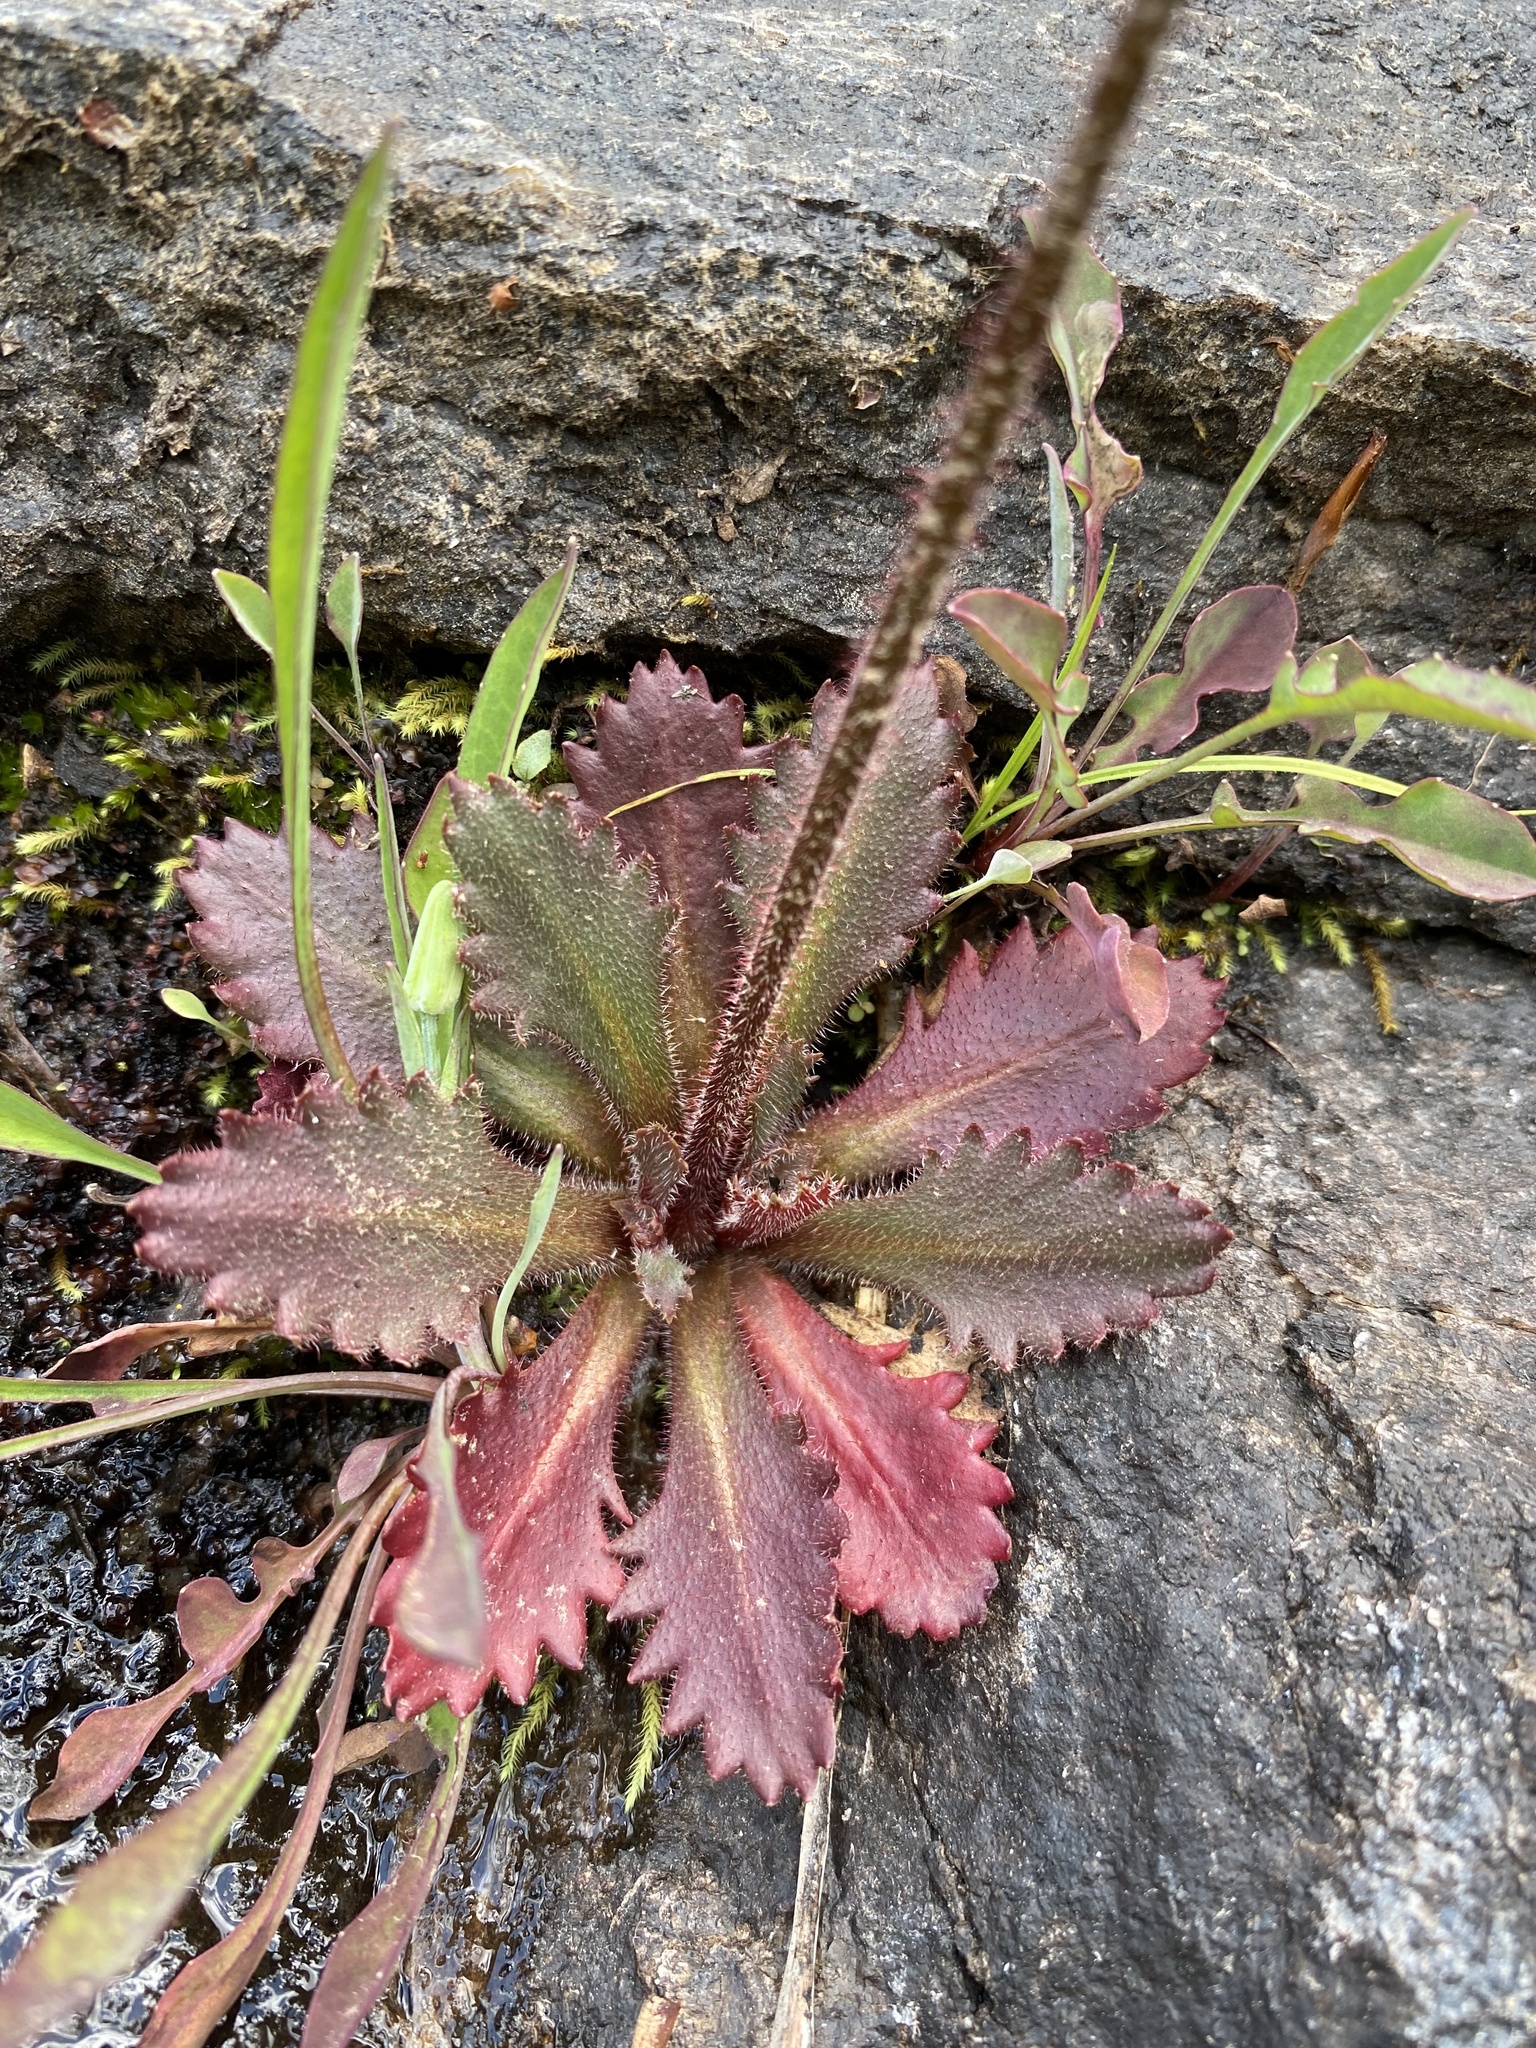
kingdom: Plantae
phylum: Tracheophyta
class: Magnoliopsida
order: Saxifragales
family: Saxifragaceae
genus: Micranthes
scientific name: Micranthes petiolaris
